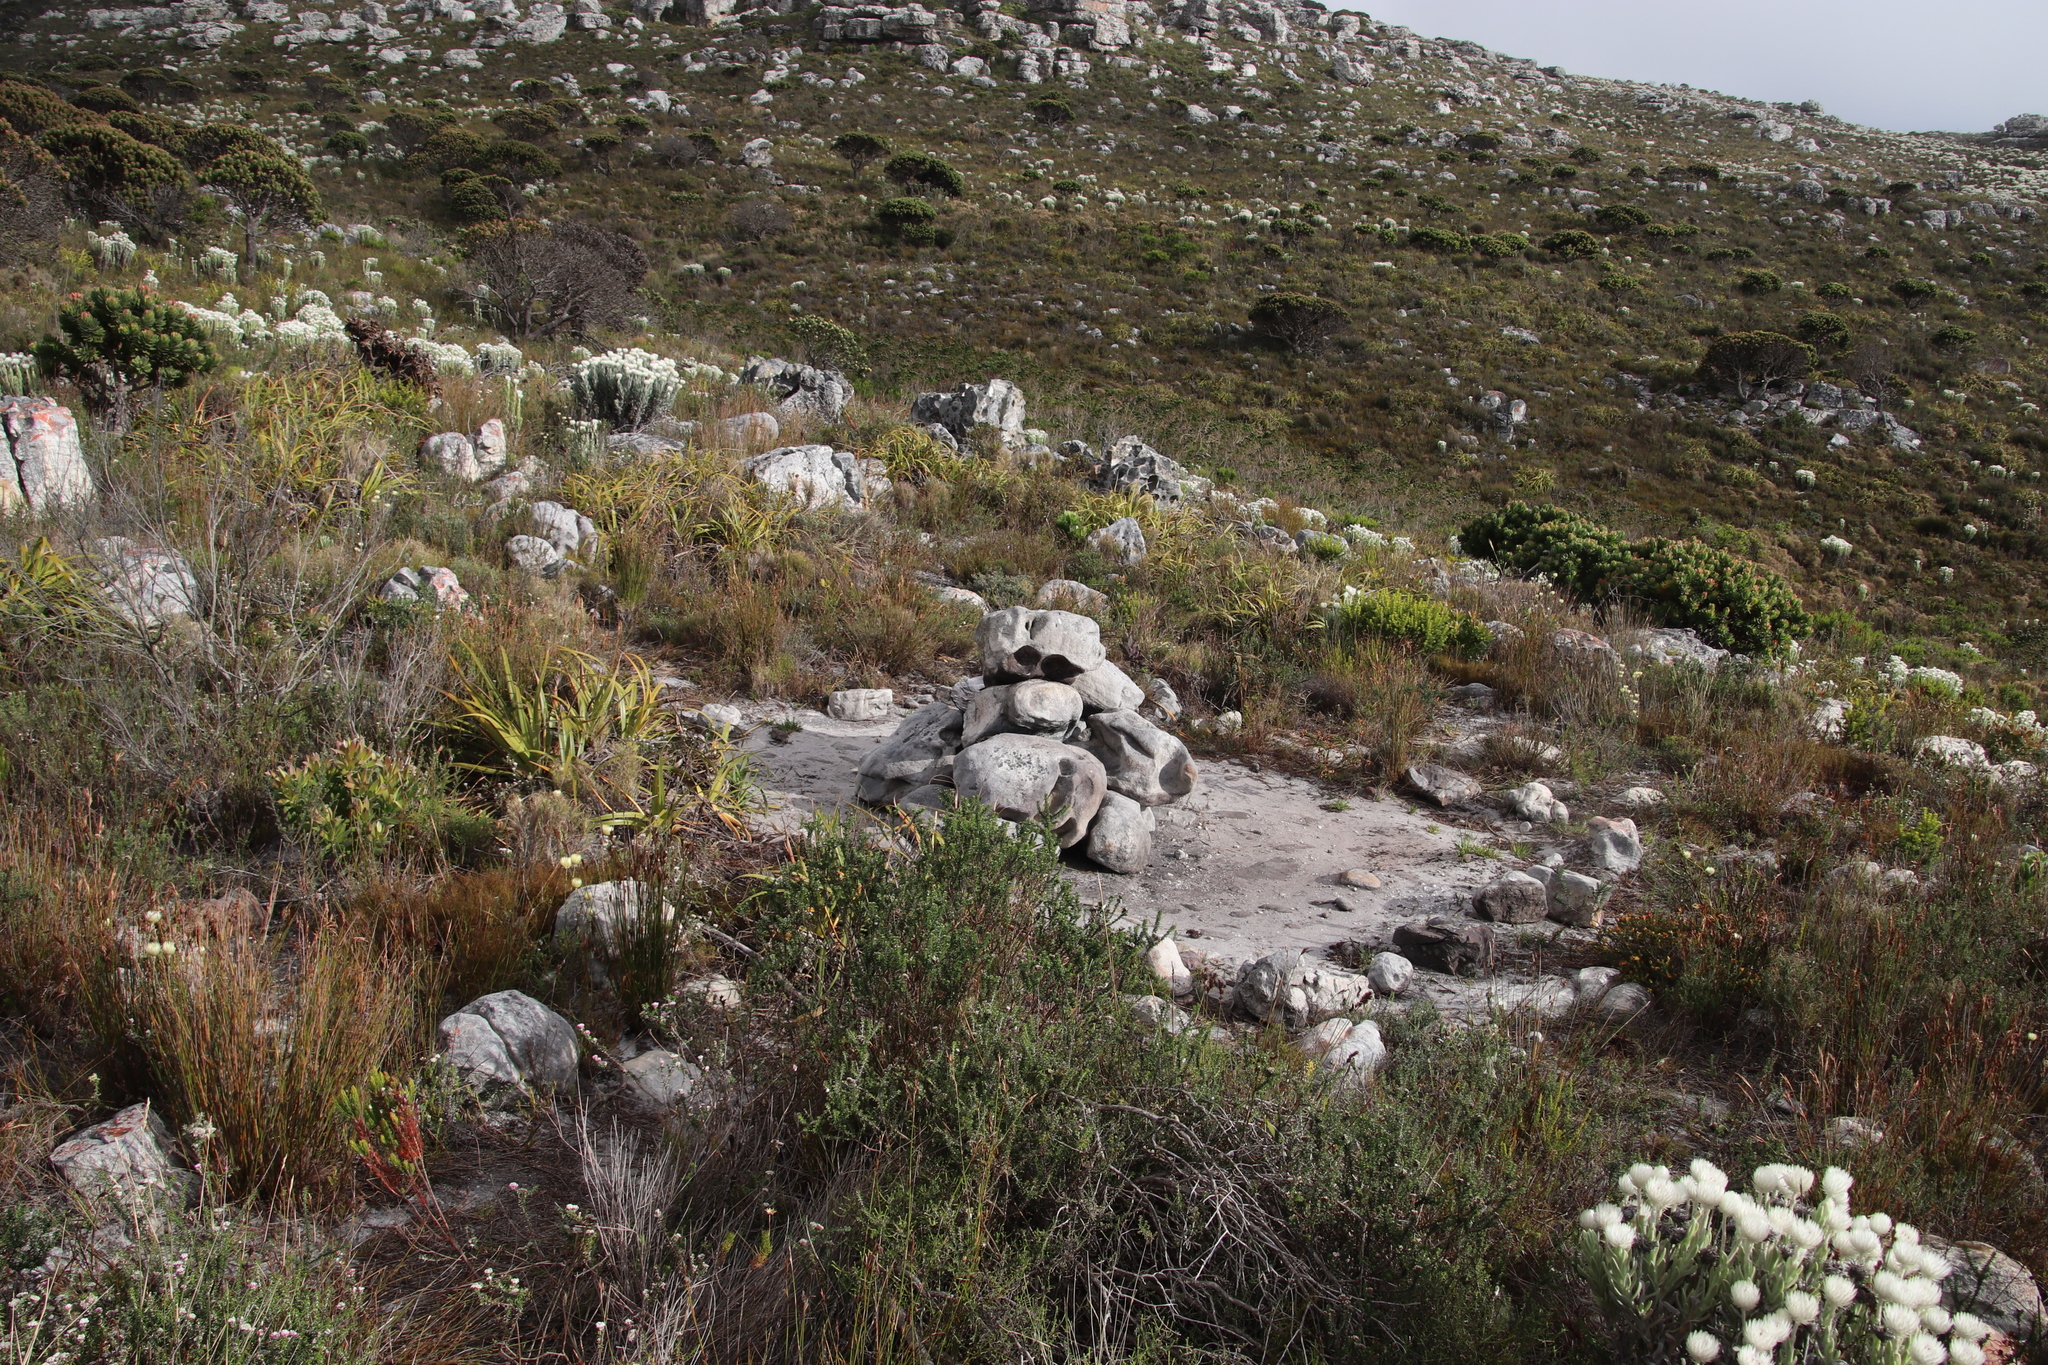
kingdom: Plantae
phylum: Tracheophyta
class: Magnoliopsida
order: Proteales
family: Proteaceae
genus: Mimetes
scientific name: Mimetes fimbriifolius
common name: Fringed bottlebrush
